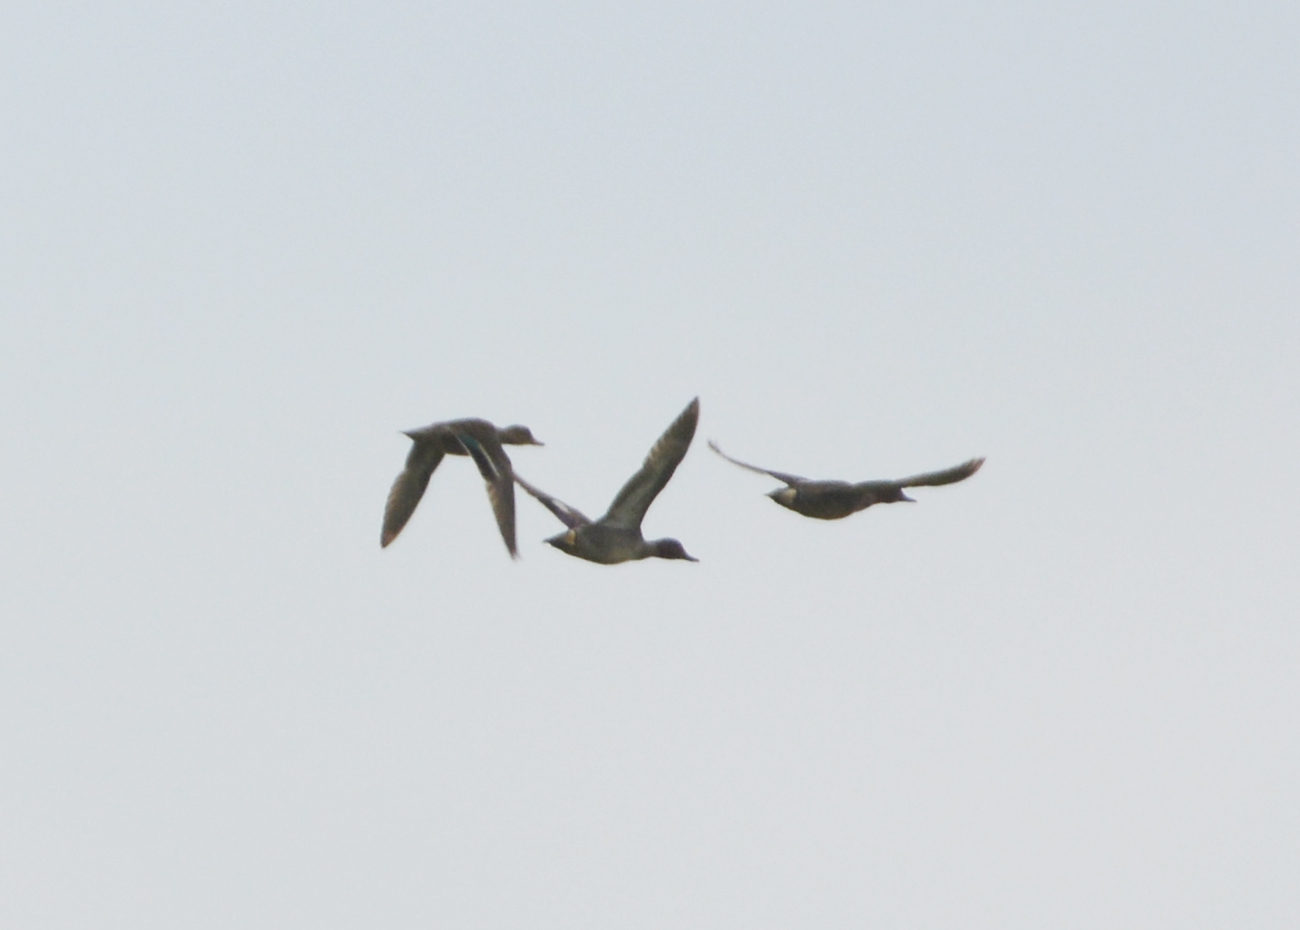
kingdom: Animalia
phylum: Chordata
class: Aves
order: Anseriformes
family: Anatidae
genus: Anas
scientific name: Anas crecca
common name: Eurasian teal
